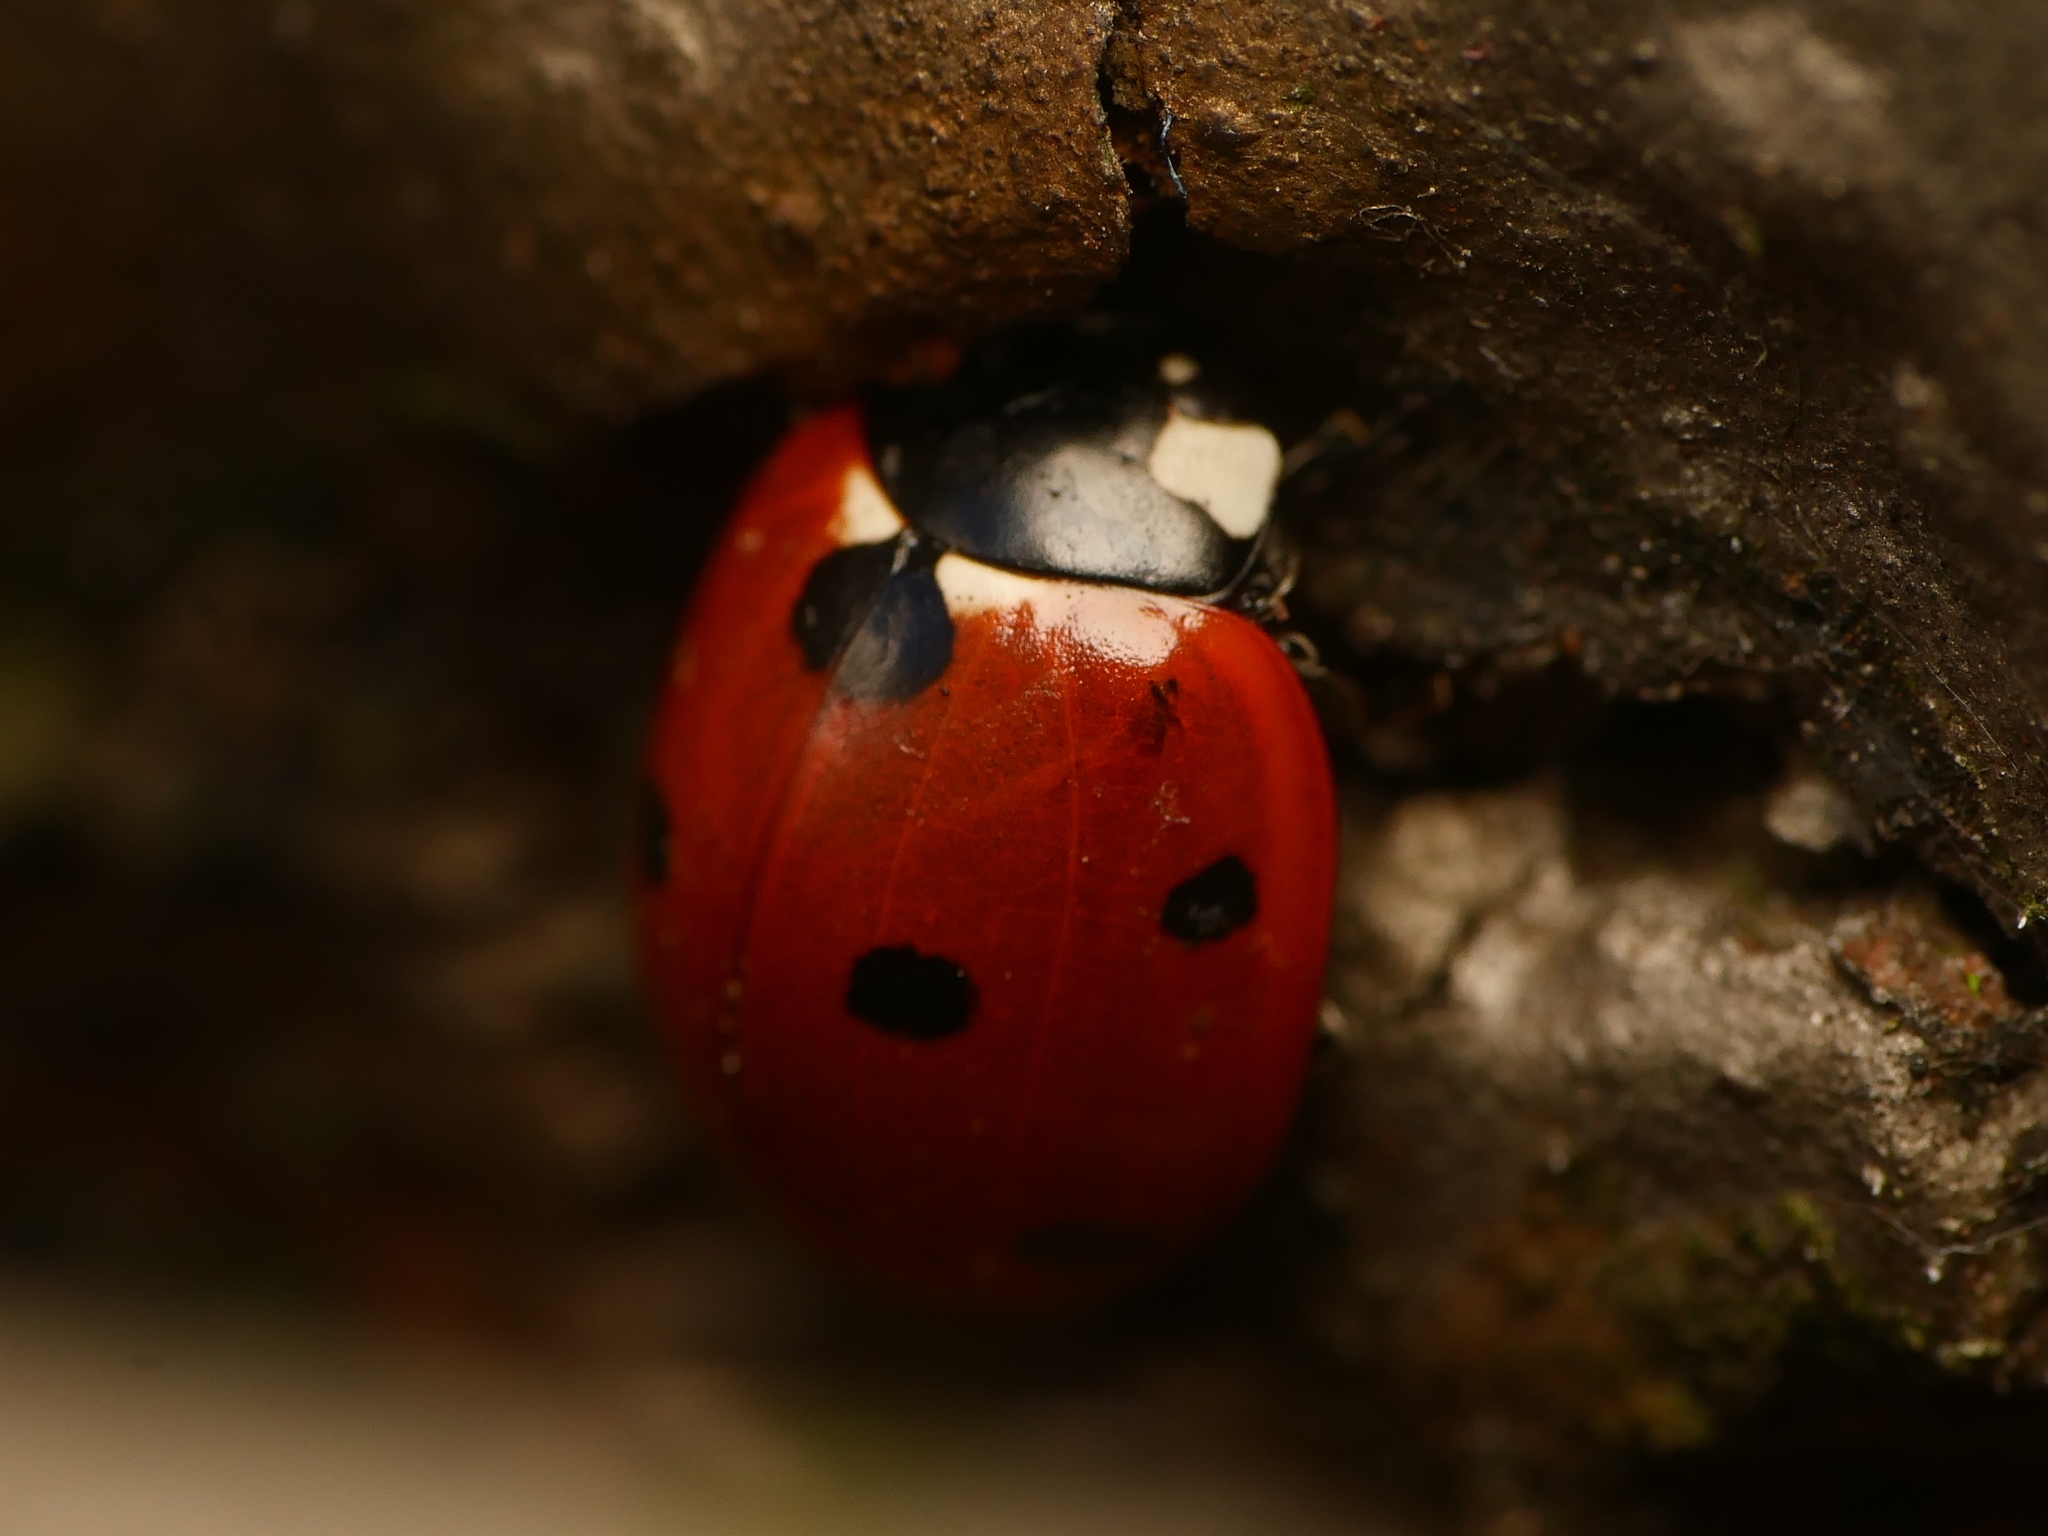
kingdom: Animalia
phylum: Arthropoda
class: Insecta
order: Coleoptera
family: Coccinellidae
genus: Coccinella
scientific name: Coccinella septempunctata
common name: Sevenspotted lady beetle
